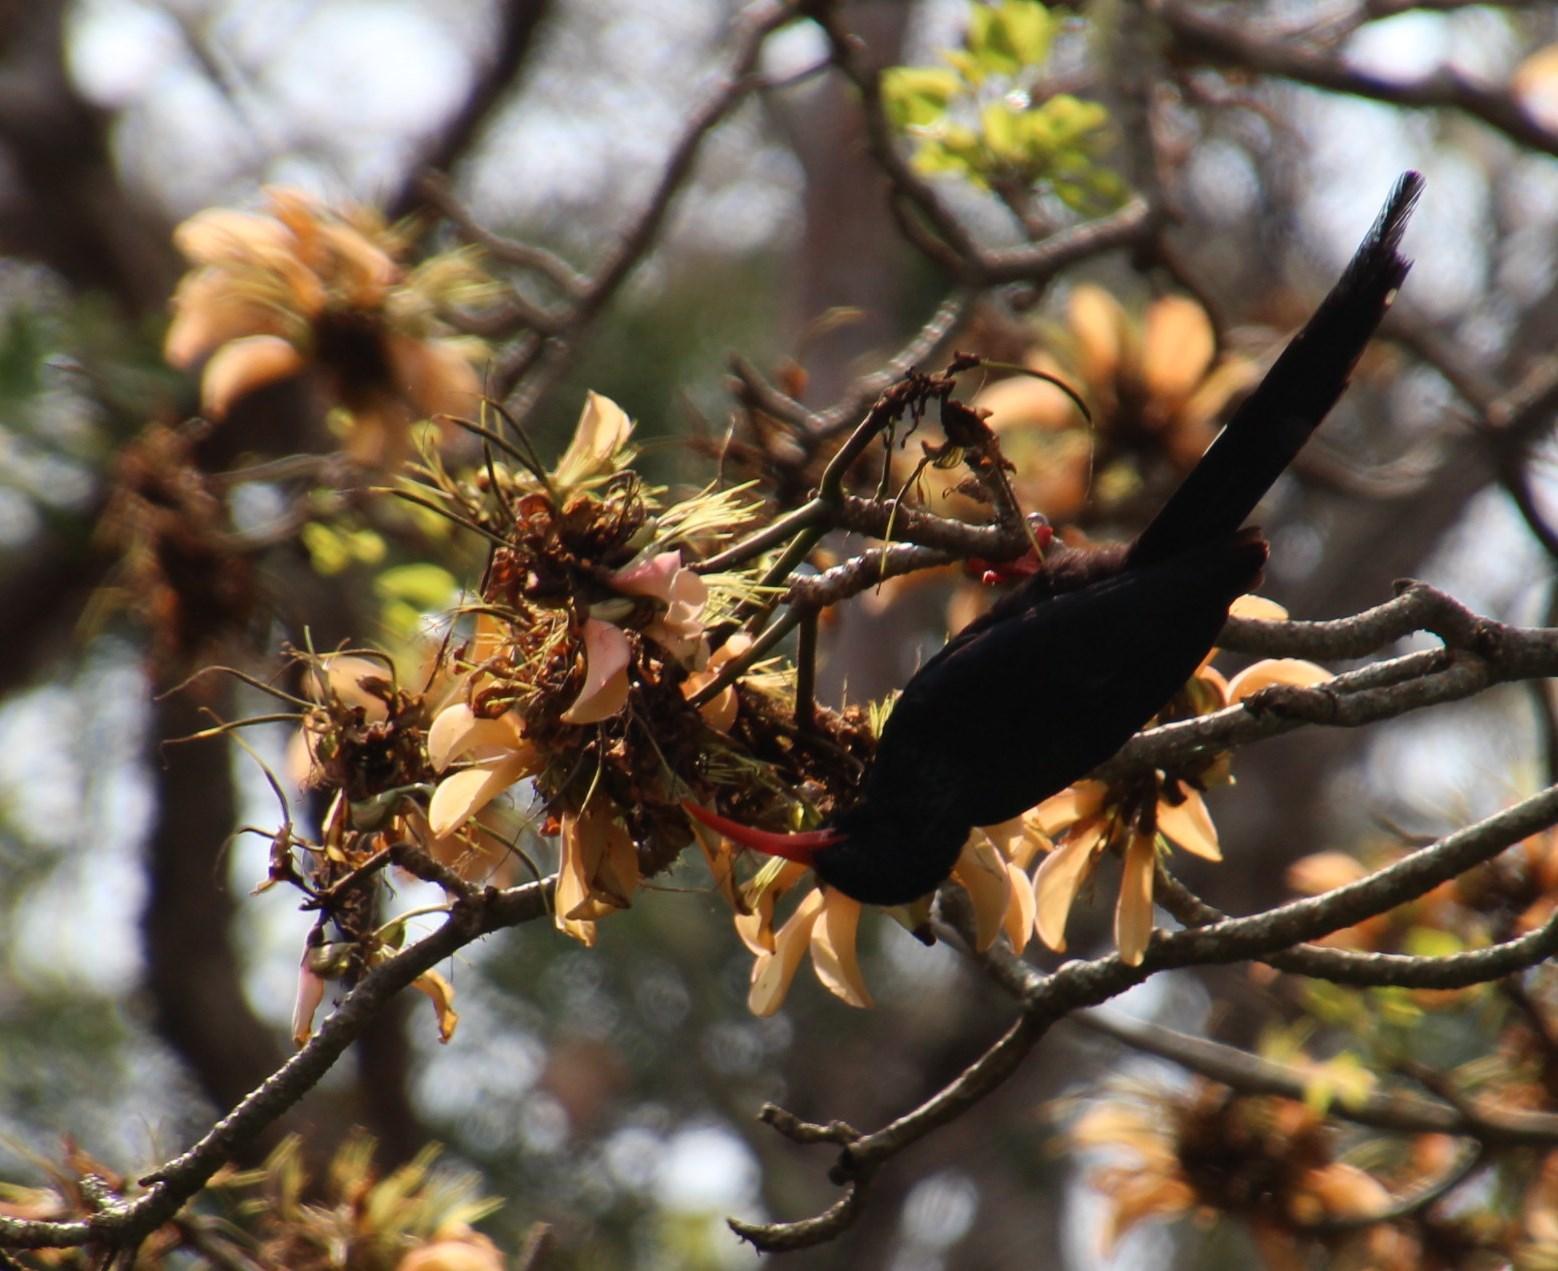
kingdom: Animalia
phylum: Chordata
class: Aves
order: Bucerotiformes
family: Phoeniculidae
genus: Phoeniculus
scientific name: Phoeniculus purpureus
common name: Green woodhoopoe
